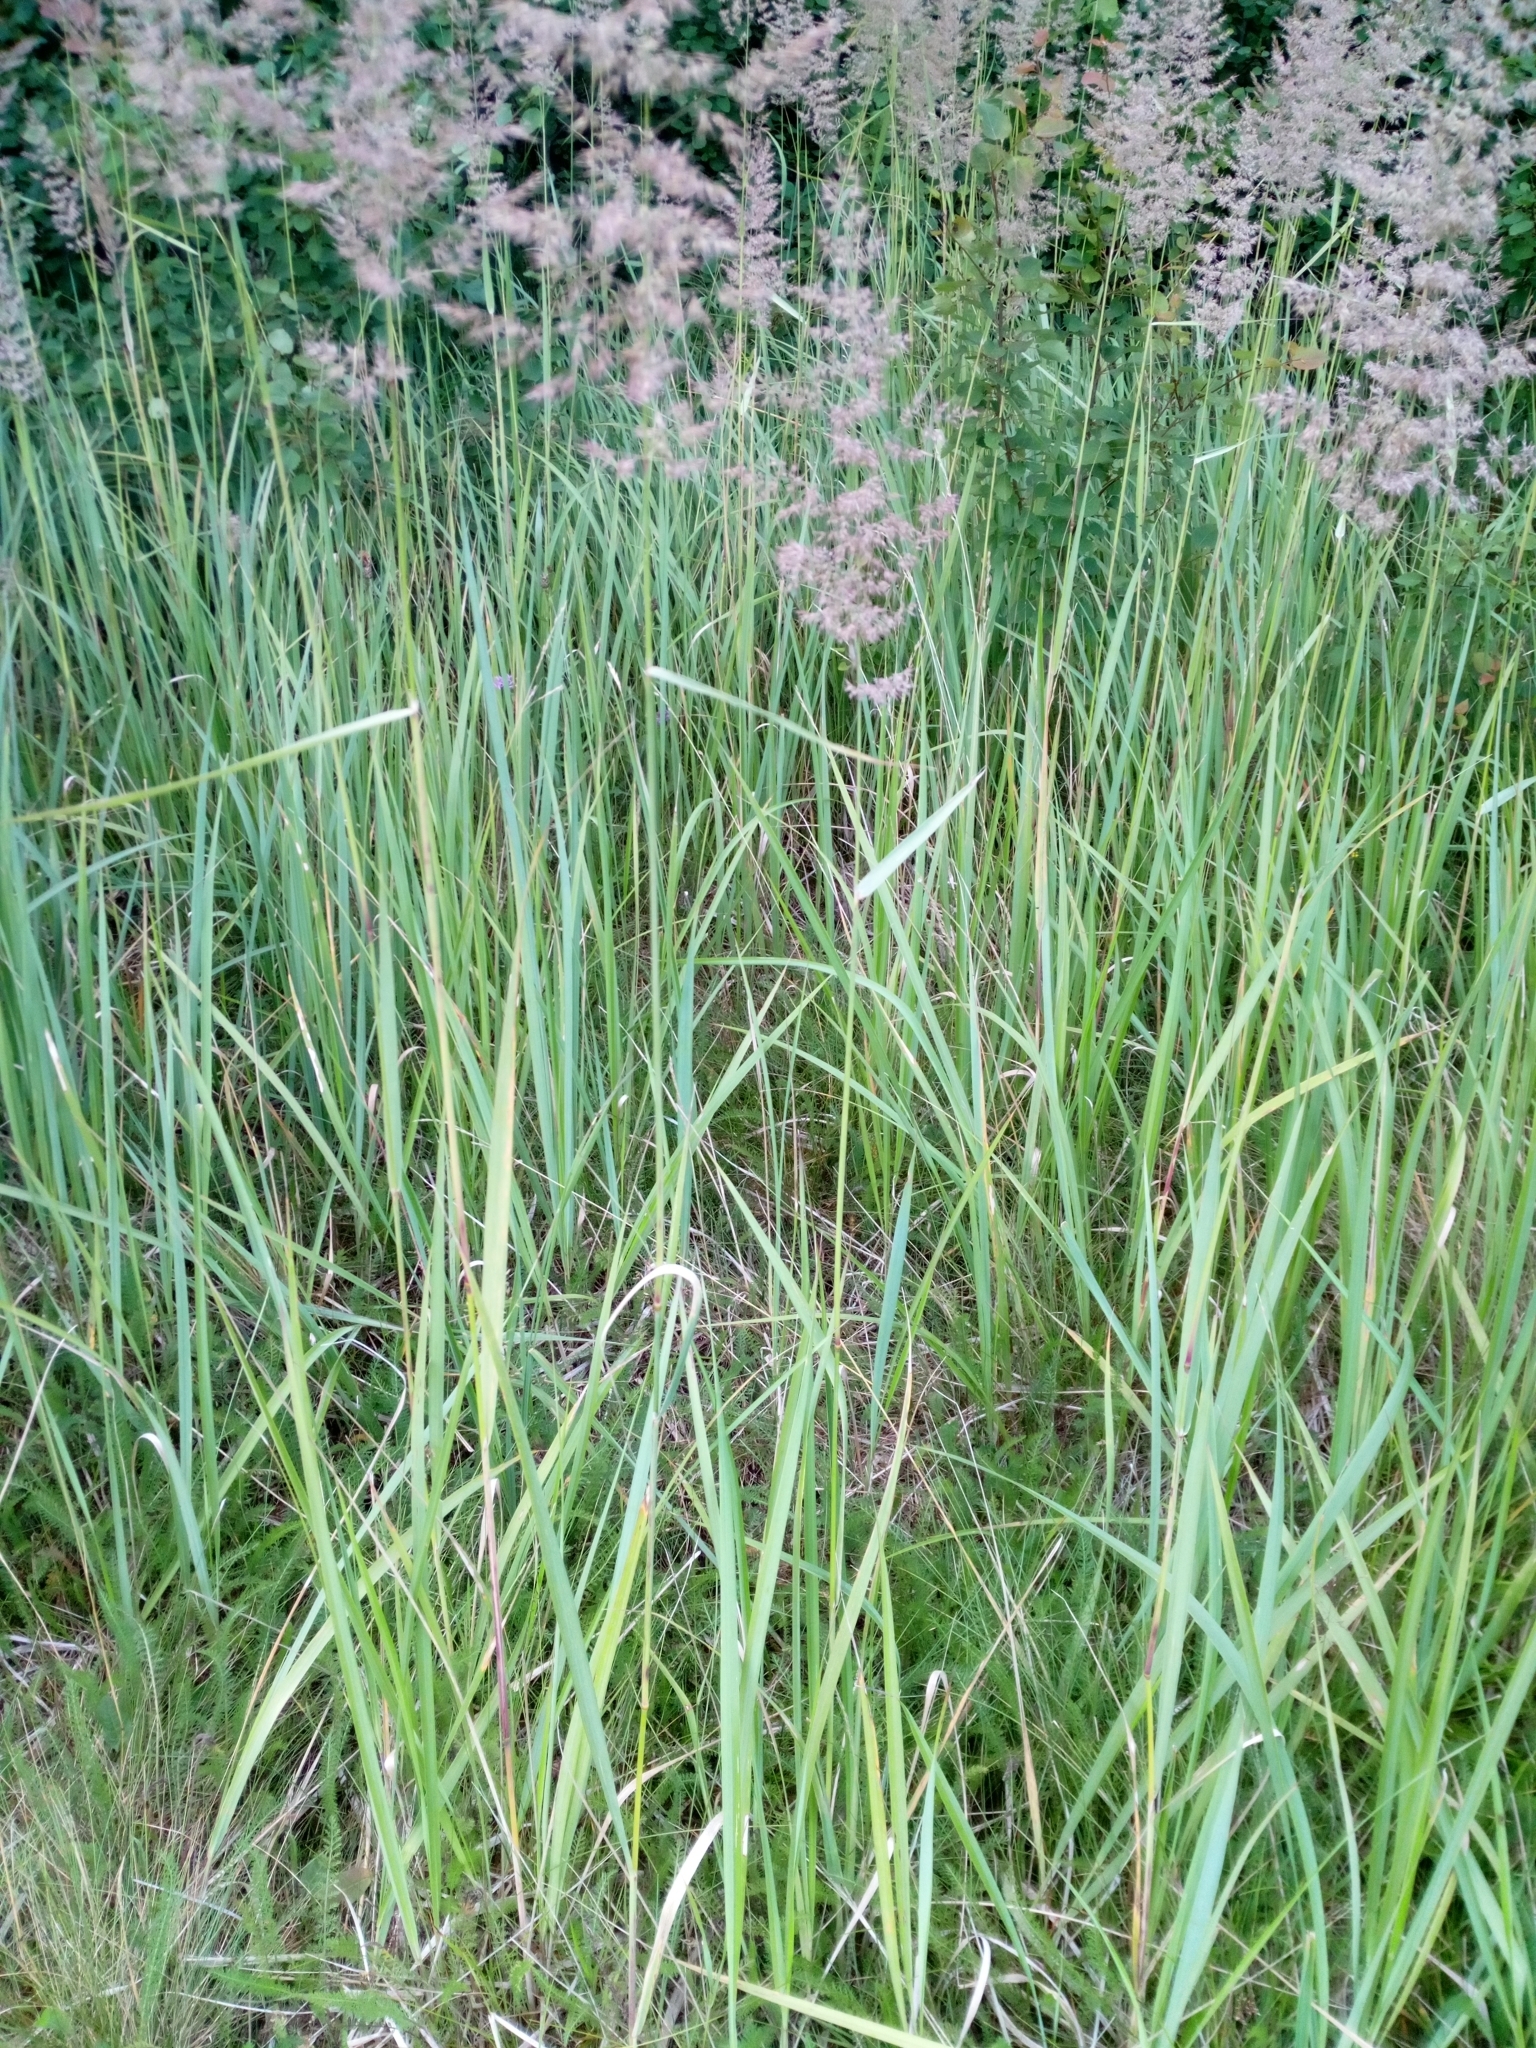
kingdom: Plantae
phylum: Tracheophyta
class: Liliopsida
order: Poales
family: Poaceae
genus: Calamagrostis
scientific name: Calamagrostis epigejos
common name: Wood small-reed
